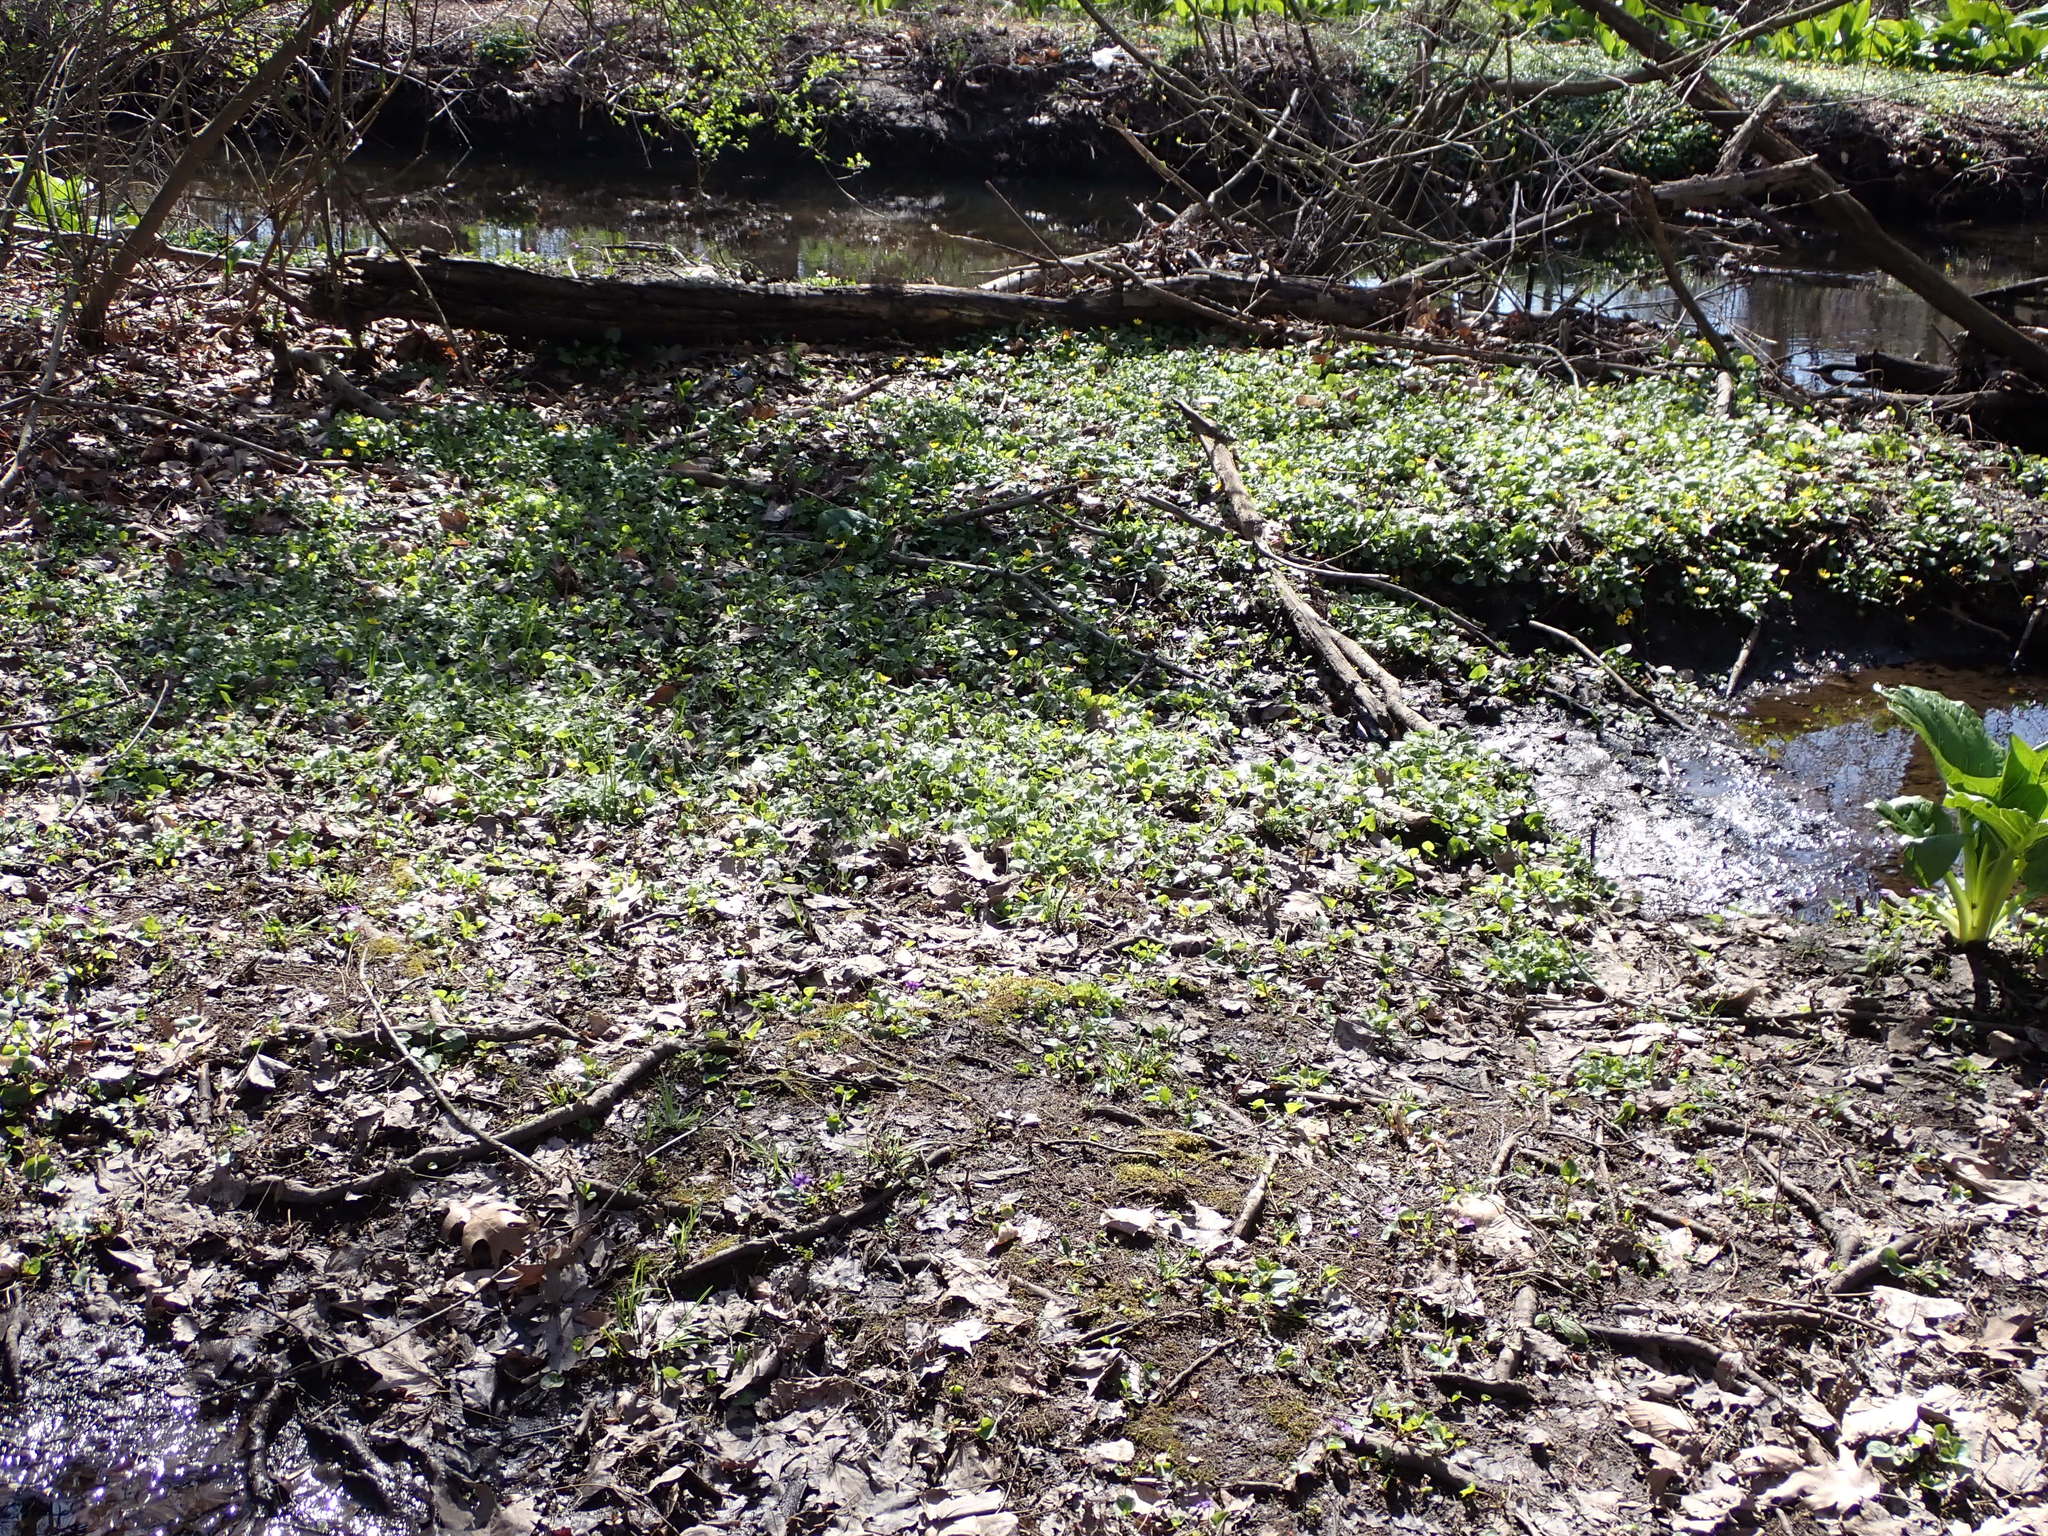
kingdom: Plantae
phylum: Tracheophyta
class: Magnoliopsida
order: Ranunculales
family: Ranunculaceae
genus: Ficaria
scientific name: Ficaria verna
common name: Lesser celandine
